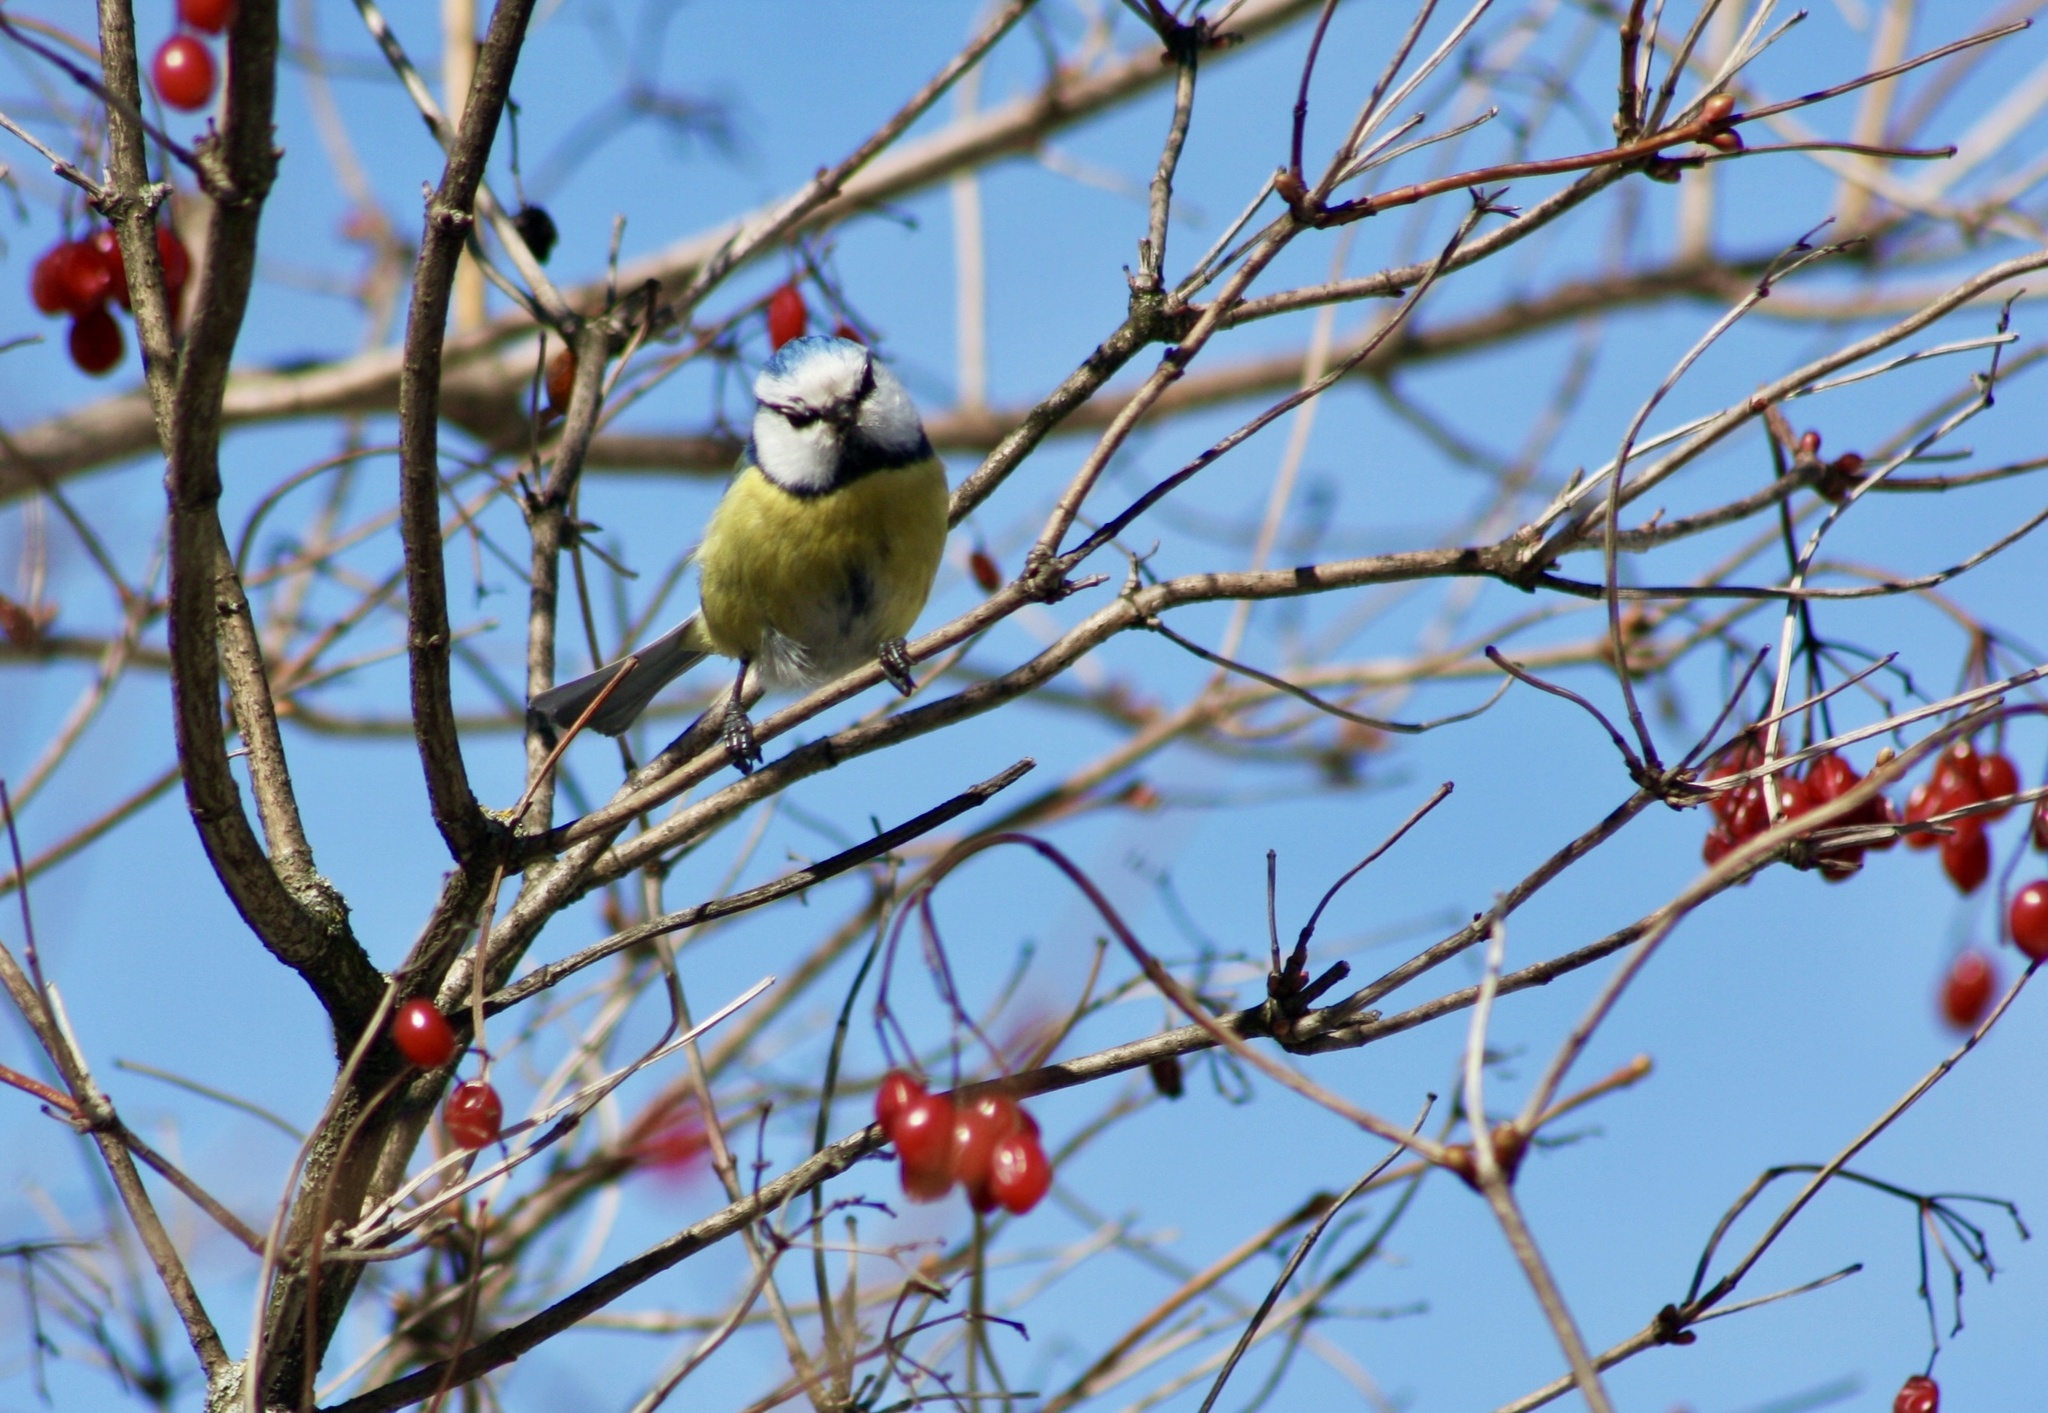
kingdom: Animalia
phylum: Chordata
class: Aves
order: Passeriformes
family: Paridae
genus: Cyanistes
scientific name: Cyanistes caeruleus
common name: Eurasian blue tit
